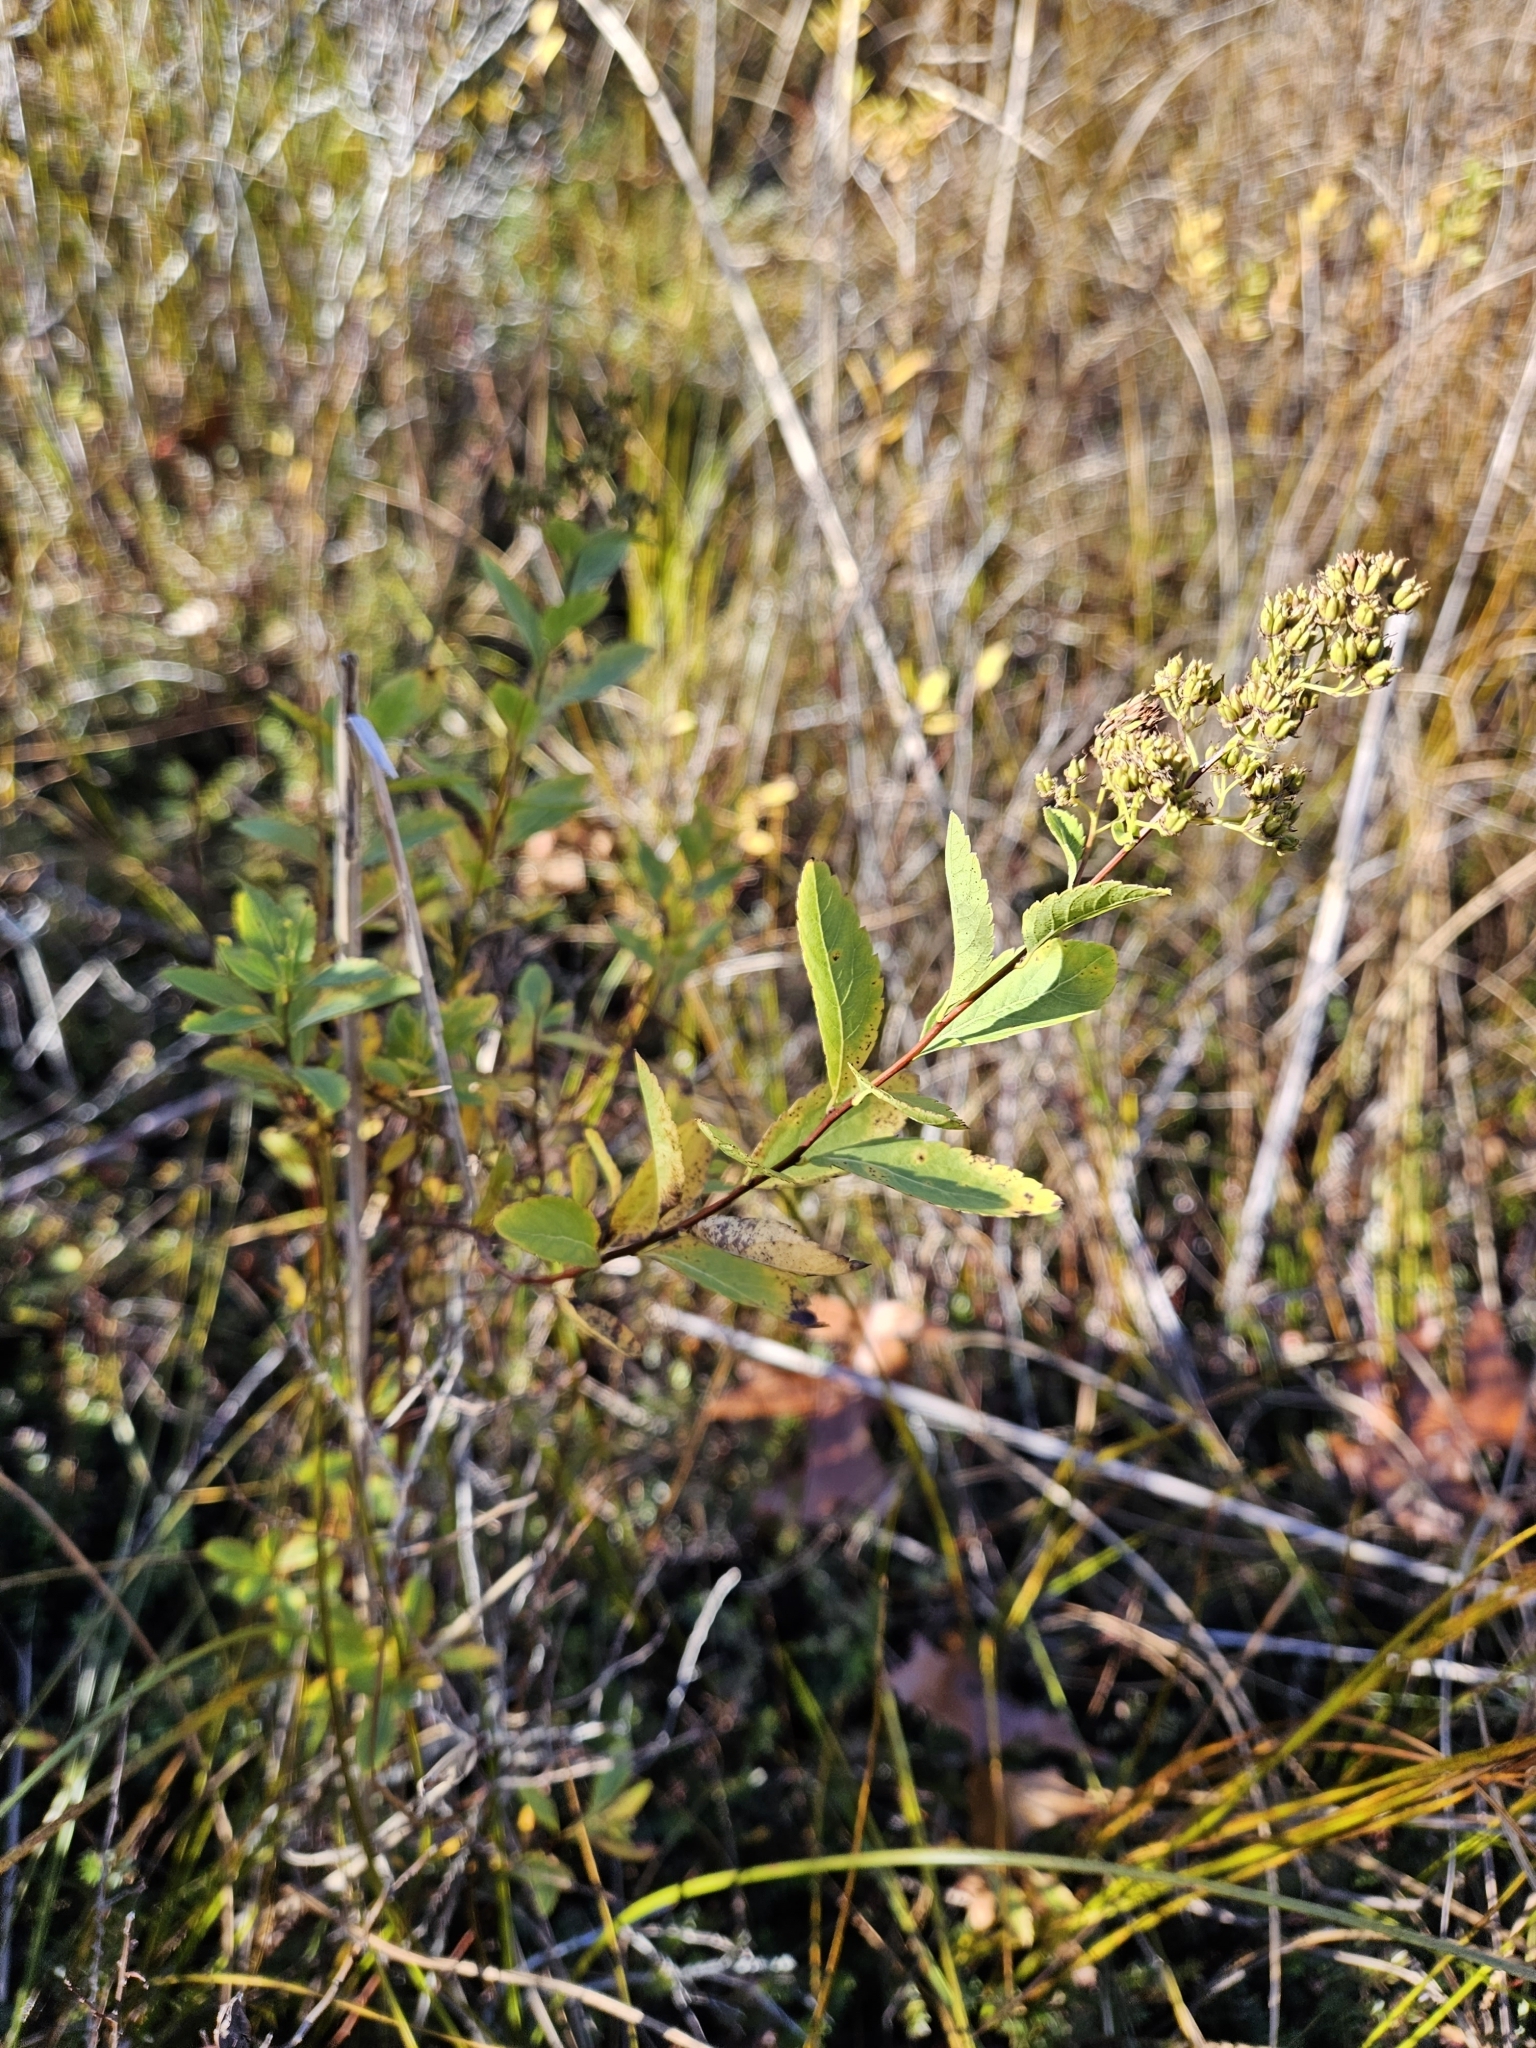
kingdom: Plantae
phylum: Tracheophyta
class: Magnoliopsida
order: Rosales
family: Rosaceae
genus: Spiraea
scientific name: Spiraea alba
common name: Pale bridewort
